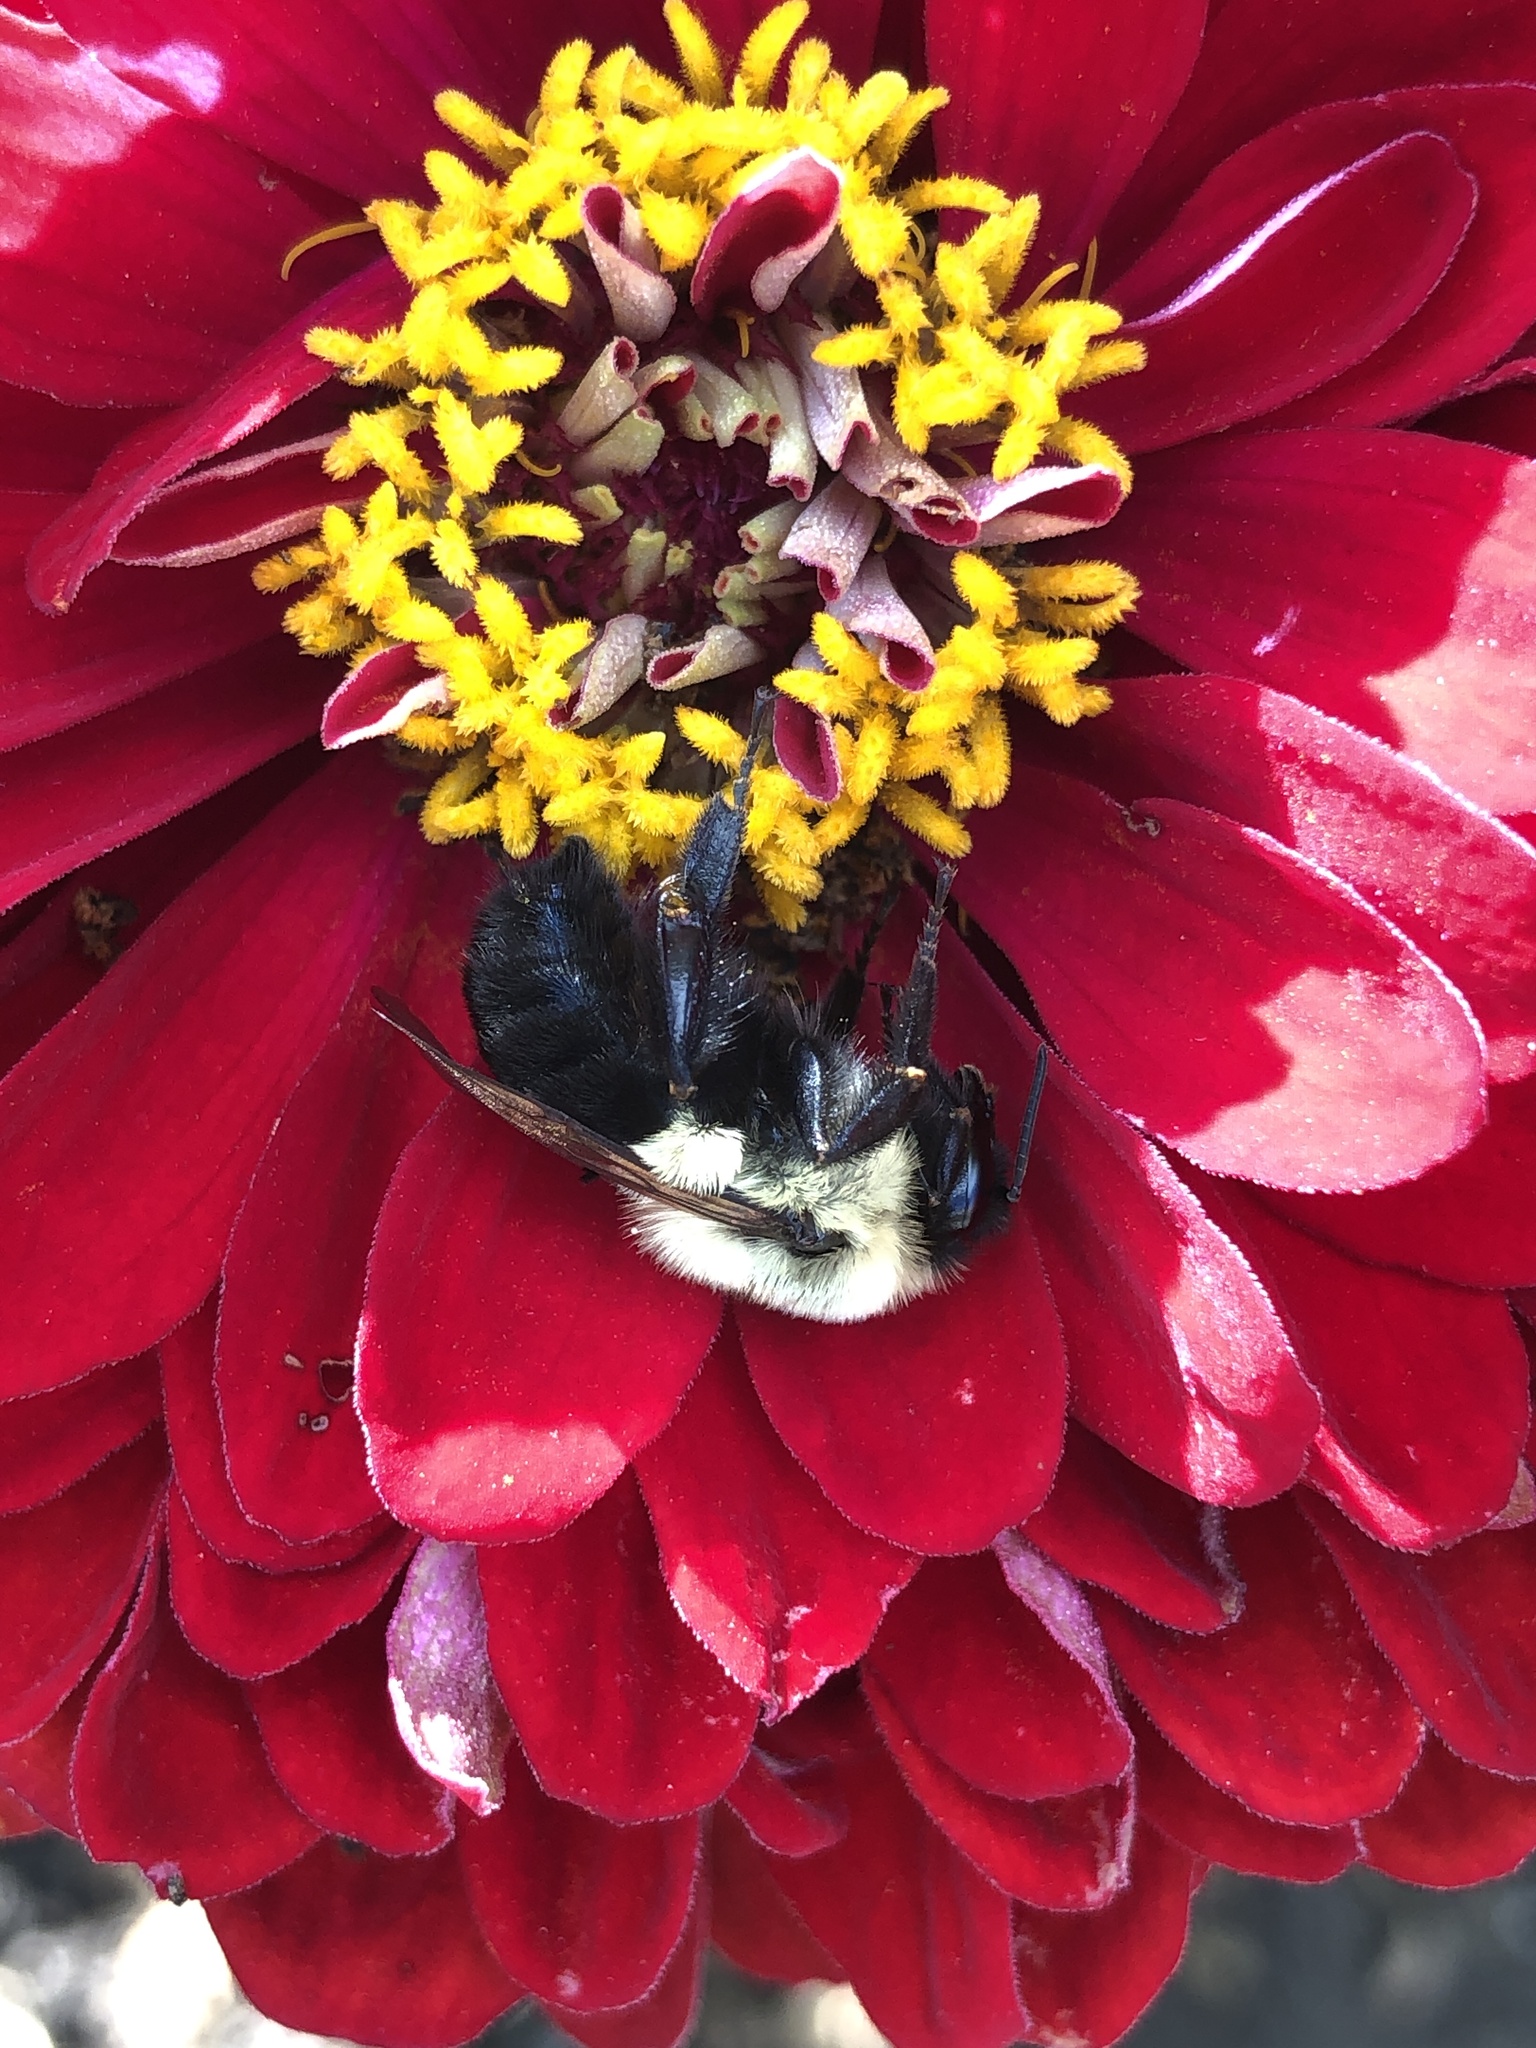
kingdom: Animalia
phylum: Arthropoda
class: Insecta
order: Hymenoptera
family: Apidae
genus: Bombus
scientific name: Bombus impatiens
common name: Common eastern bumble bee
